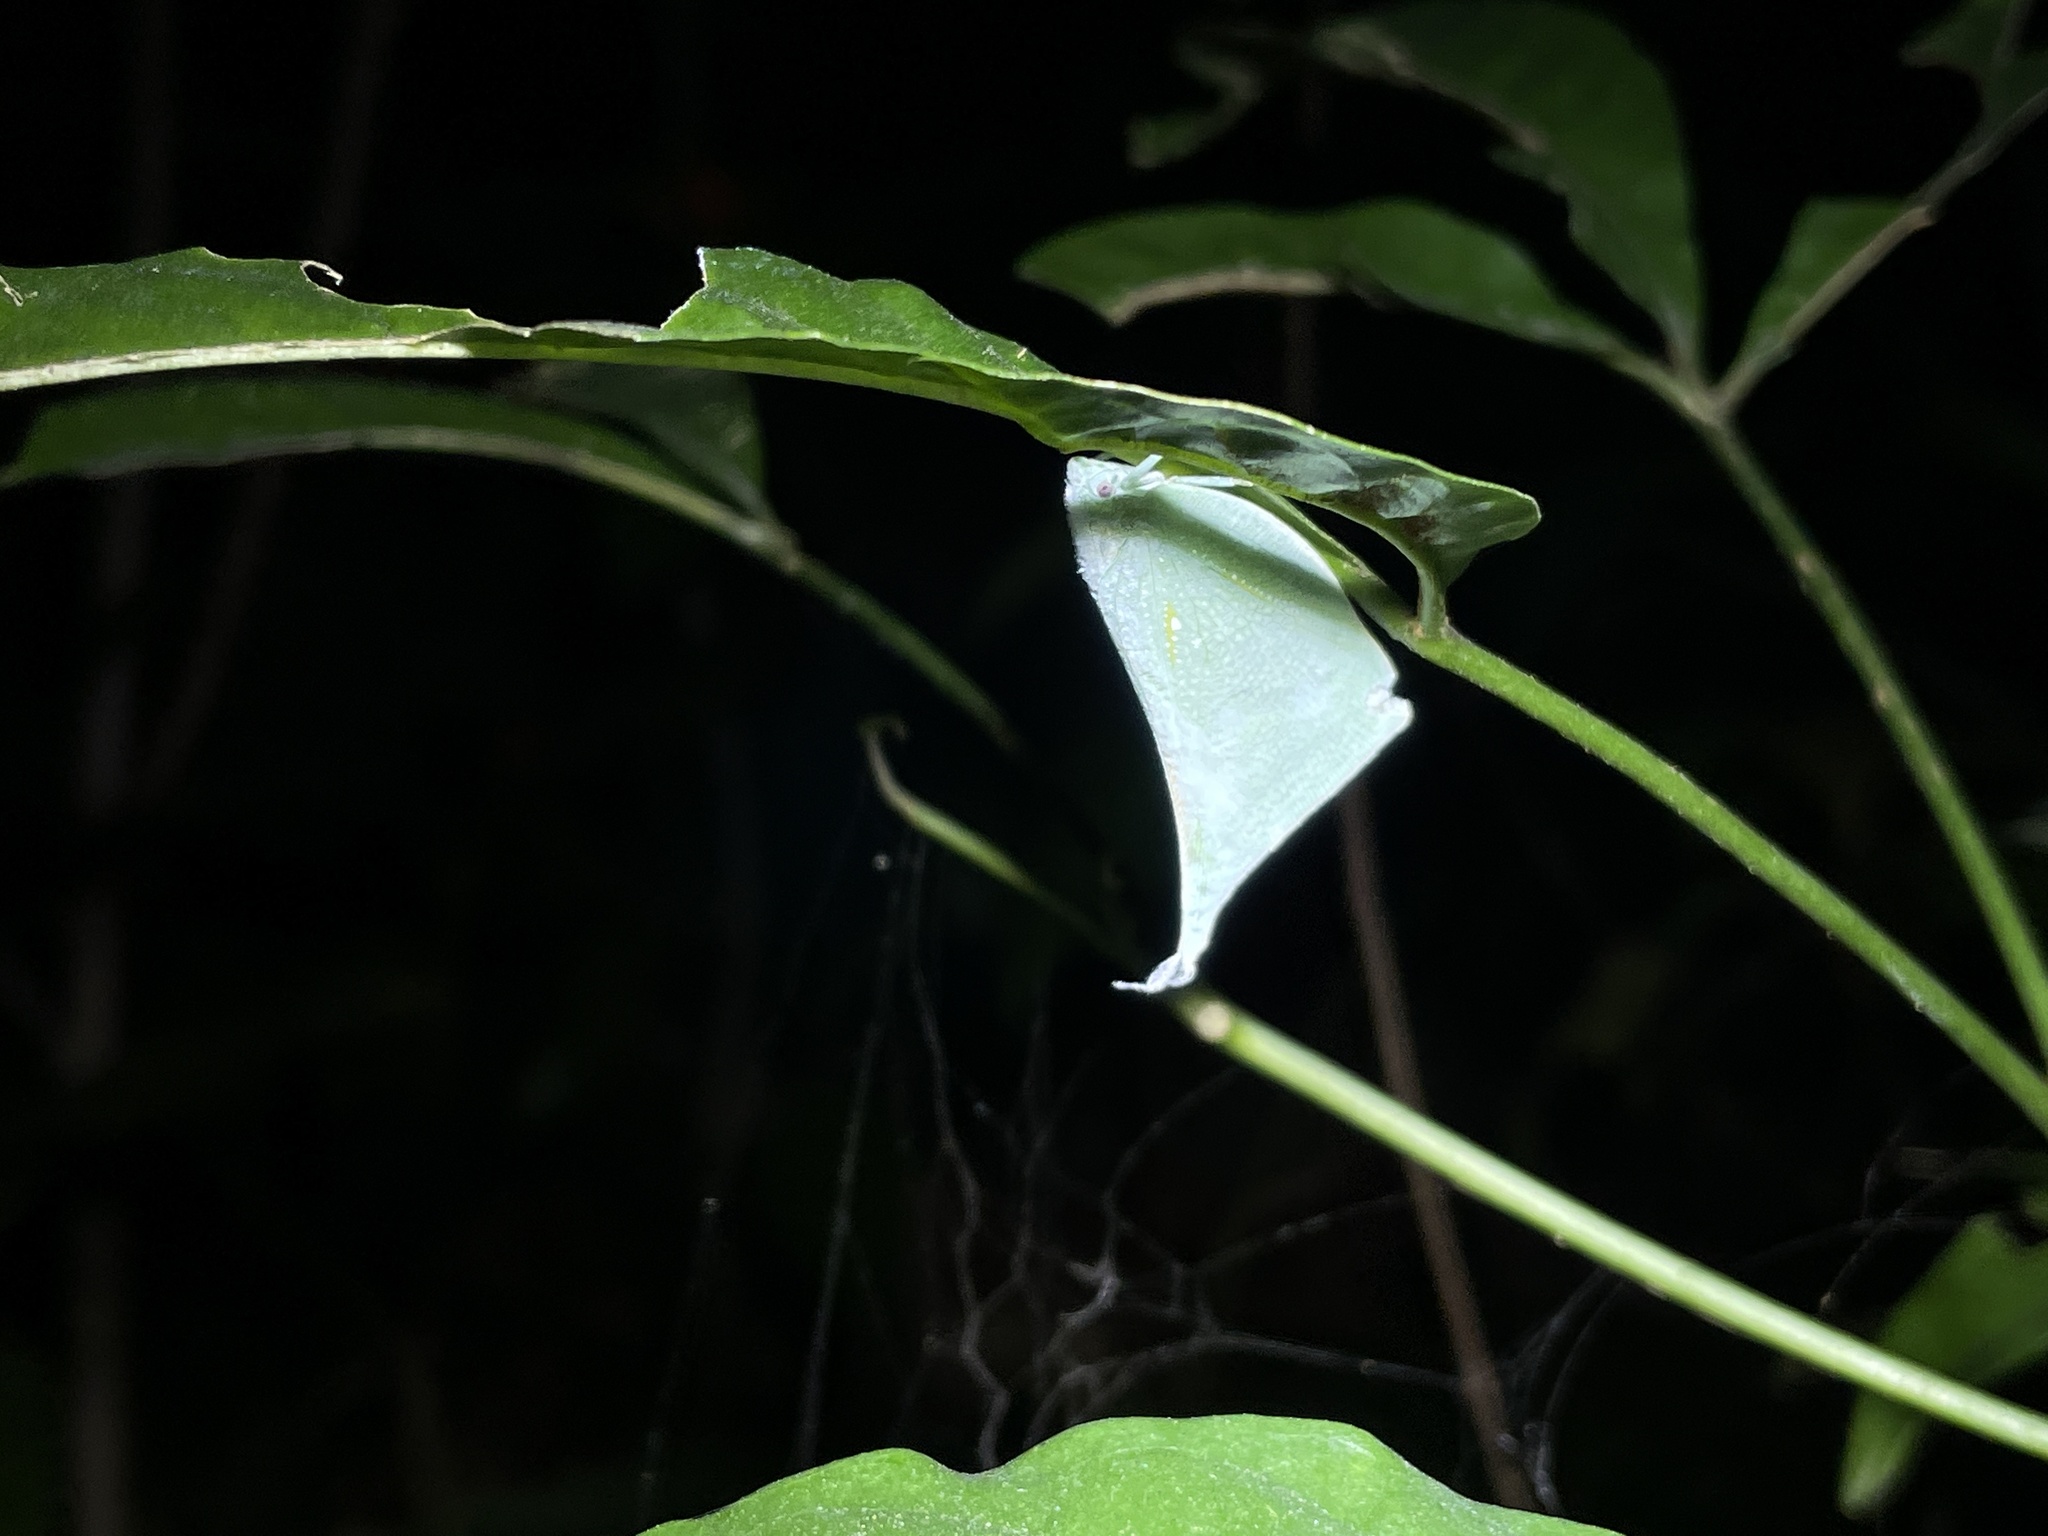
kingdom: Animalia
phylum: Arthropoda
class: Insecta
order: Hemiptera
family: Flatidae
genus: Lawana
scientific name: Lawana imitata
